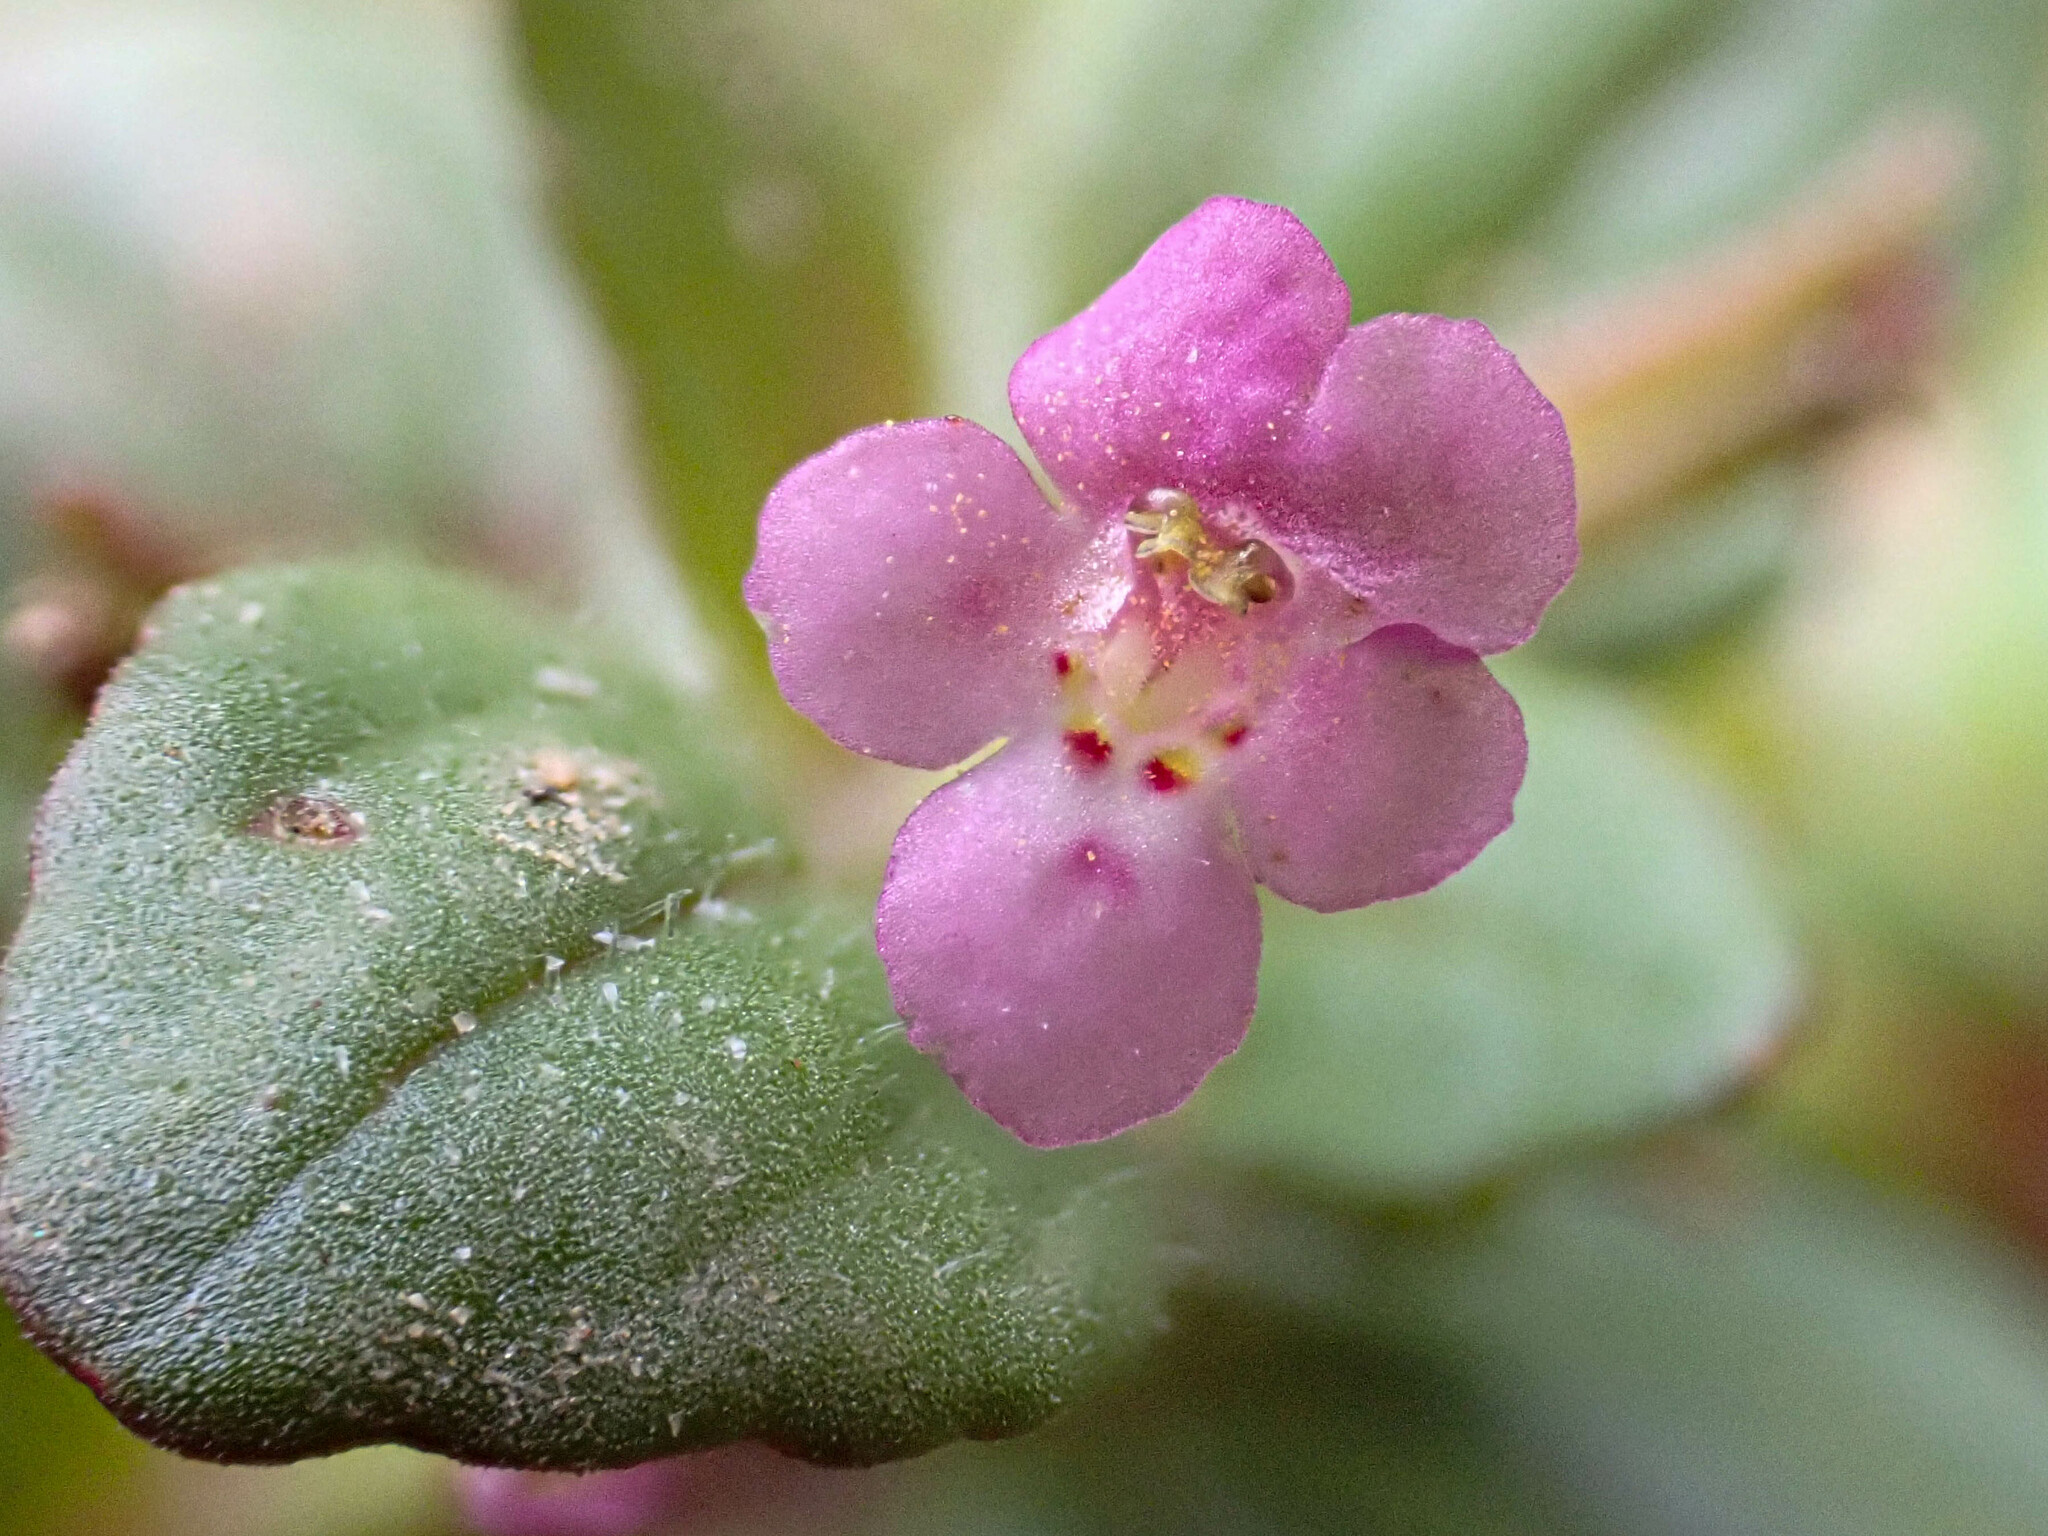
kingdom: Plantae
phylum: Tracheophyta
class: Magnoliopsida
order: Lamiales
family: Phrymaceae
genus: Diplacus
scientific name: Diplacus congdonii
